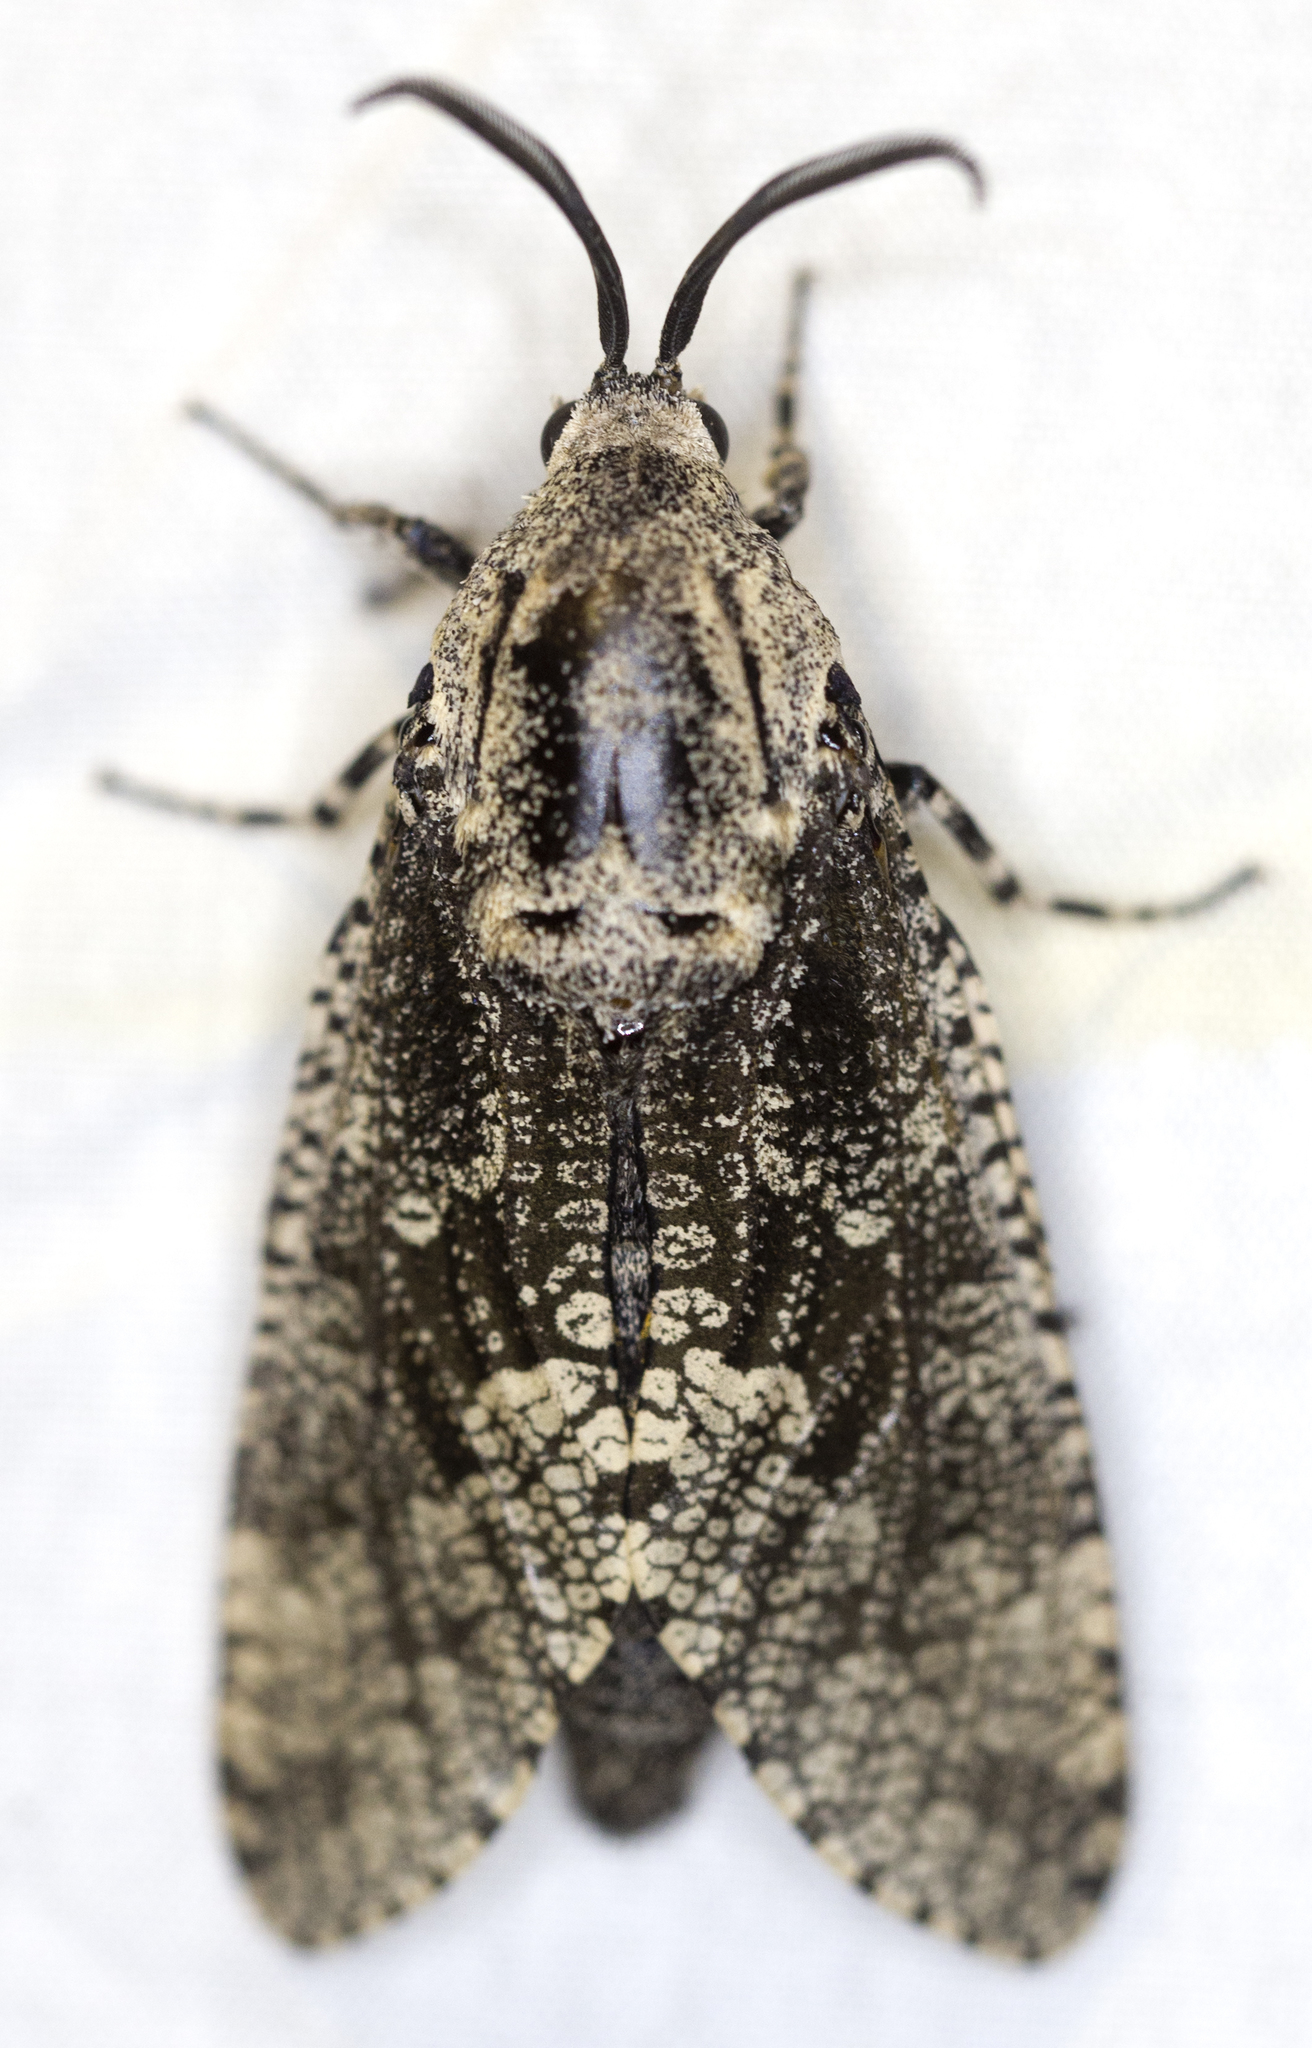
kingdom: Animalia
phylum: Arthropoda
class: Insecta
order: Lepidoptera
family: Cossidae
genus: Prionoxystus
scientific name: Prionoxystus robiniae
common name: Carpenterworm
